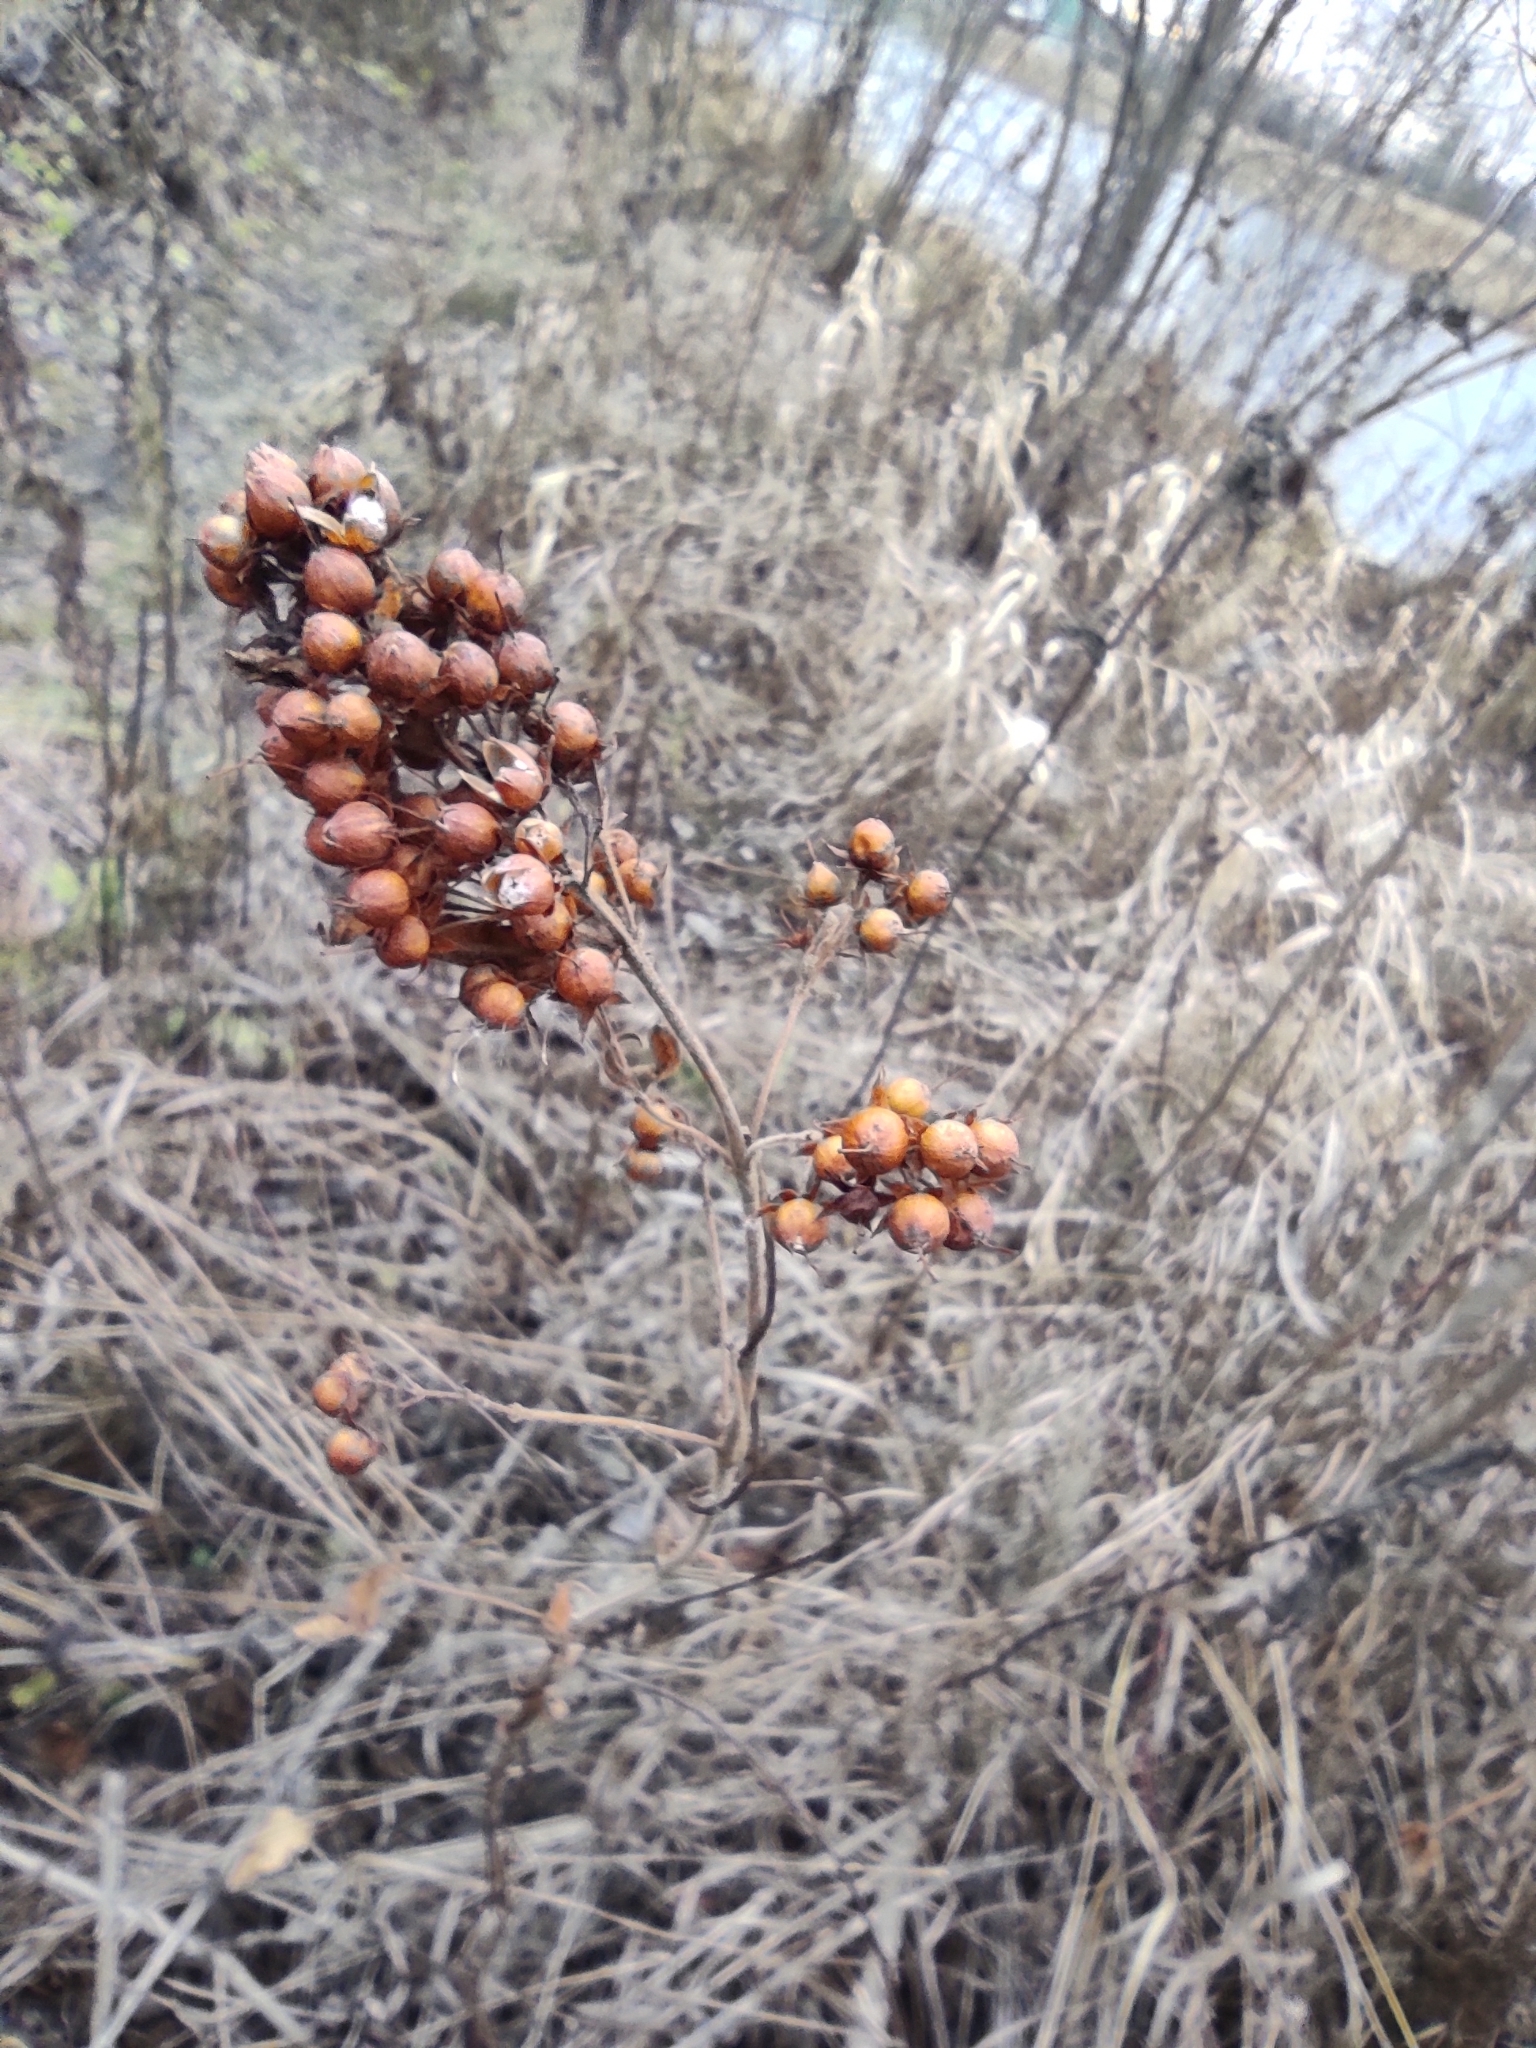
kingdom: Plantae
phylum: Tracheophyta
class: Magnoliopsida
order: Ericales
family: Primulaceae
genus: Lysimachia
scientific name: Lysimachia vulgaris
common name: Yellow loosestrife
